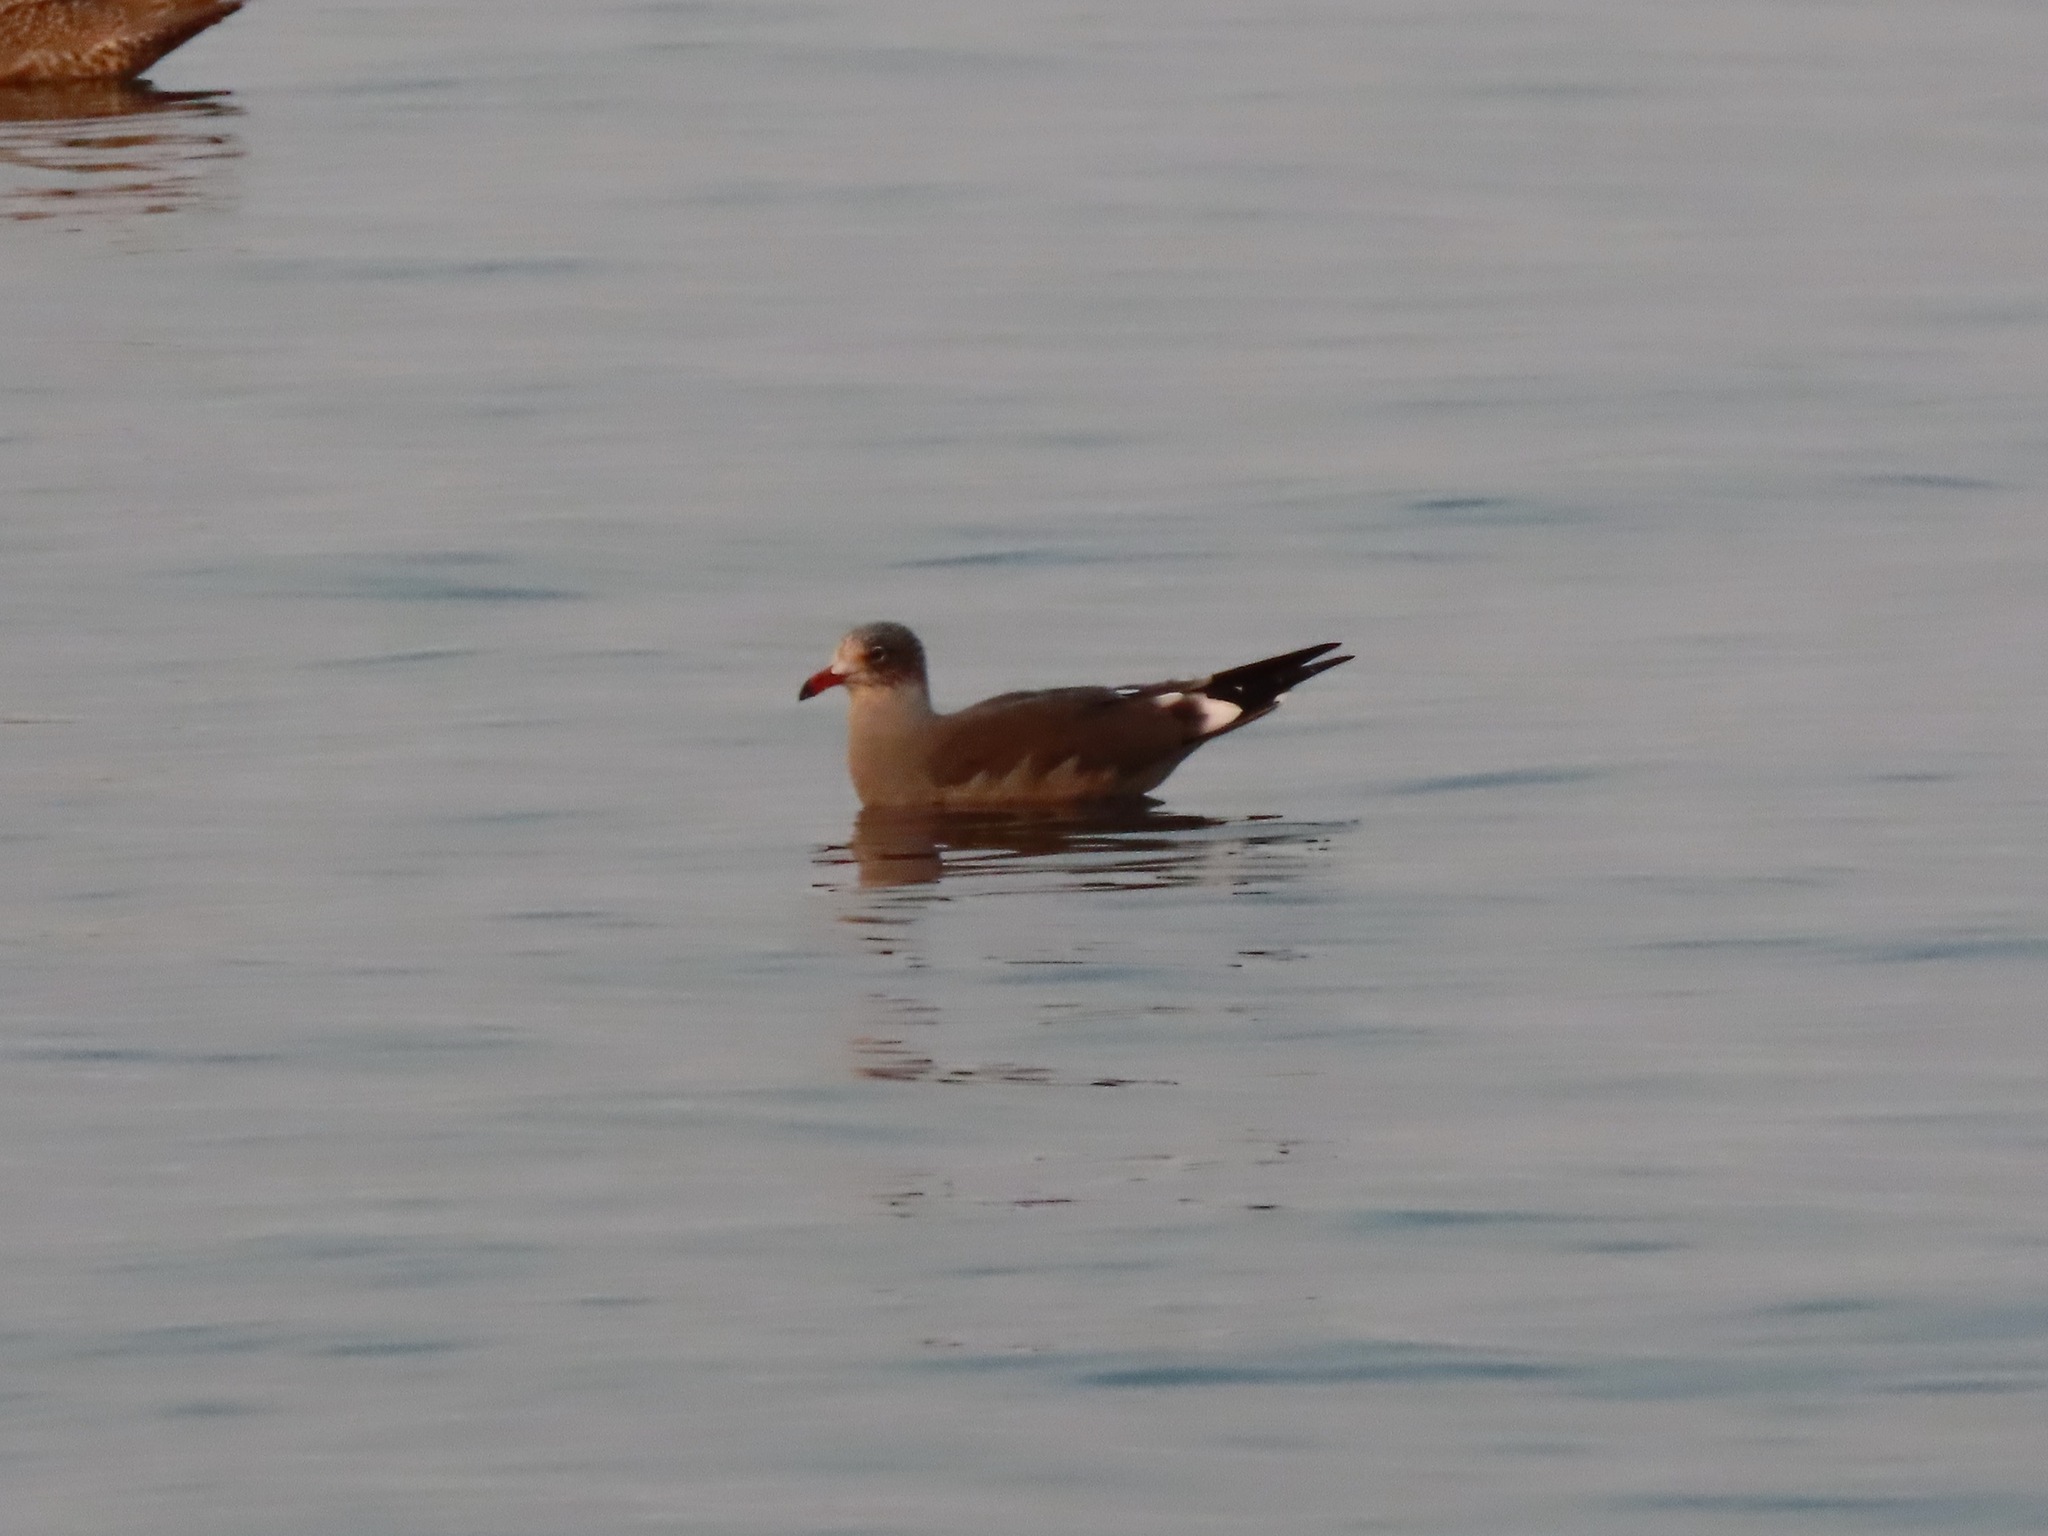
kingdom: Animalia
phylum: Chordata
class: Aves
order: Charadriiformes
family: Laridae
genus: Larus
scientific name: Larus heermanni
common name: Heermann's gull
